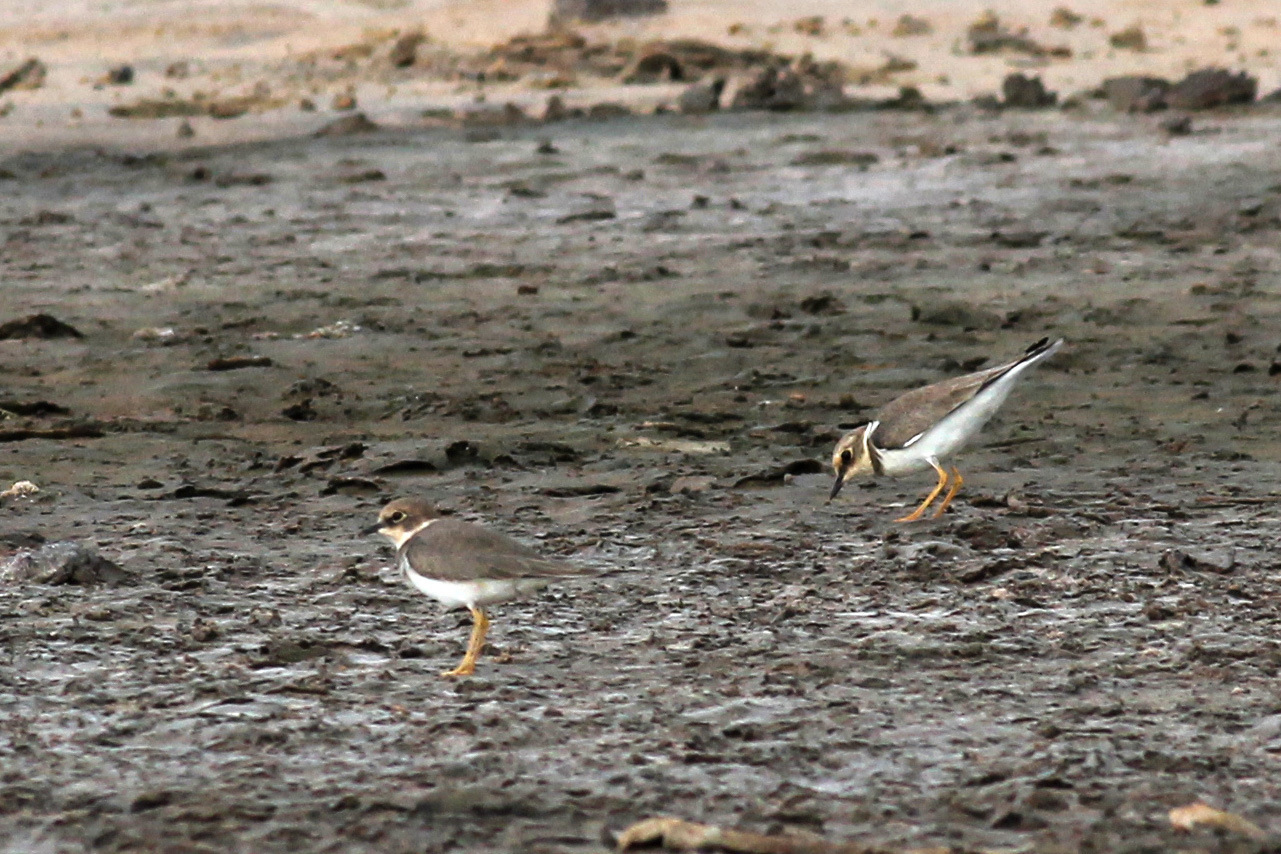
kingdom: Animalia
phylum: Chordata
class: Aves
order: Charadriiformes
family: Charadriidae
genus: Charadrius
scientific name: Charadrius dubius
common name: Little ringed plover
